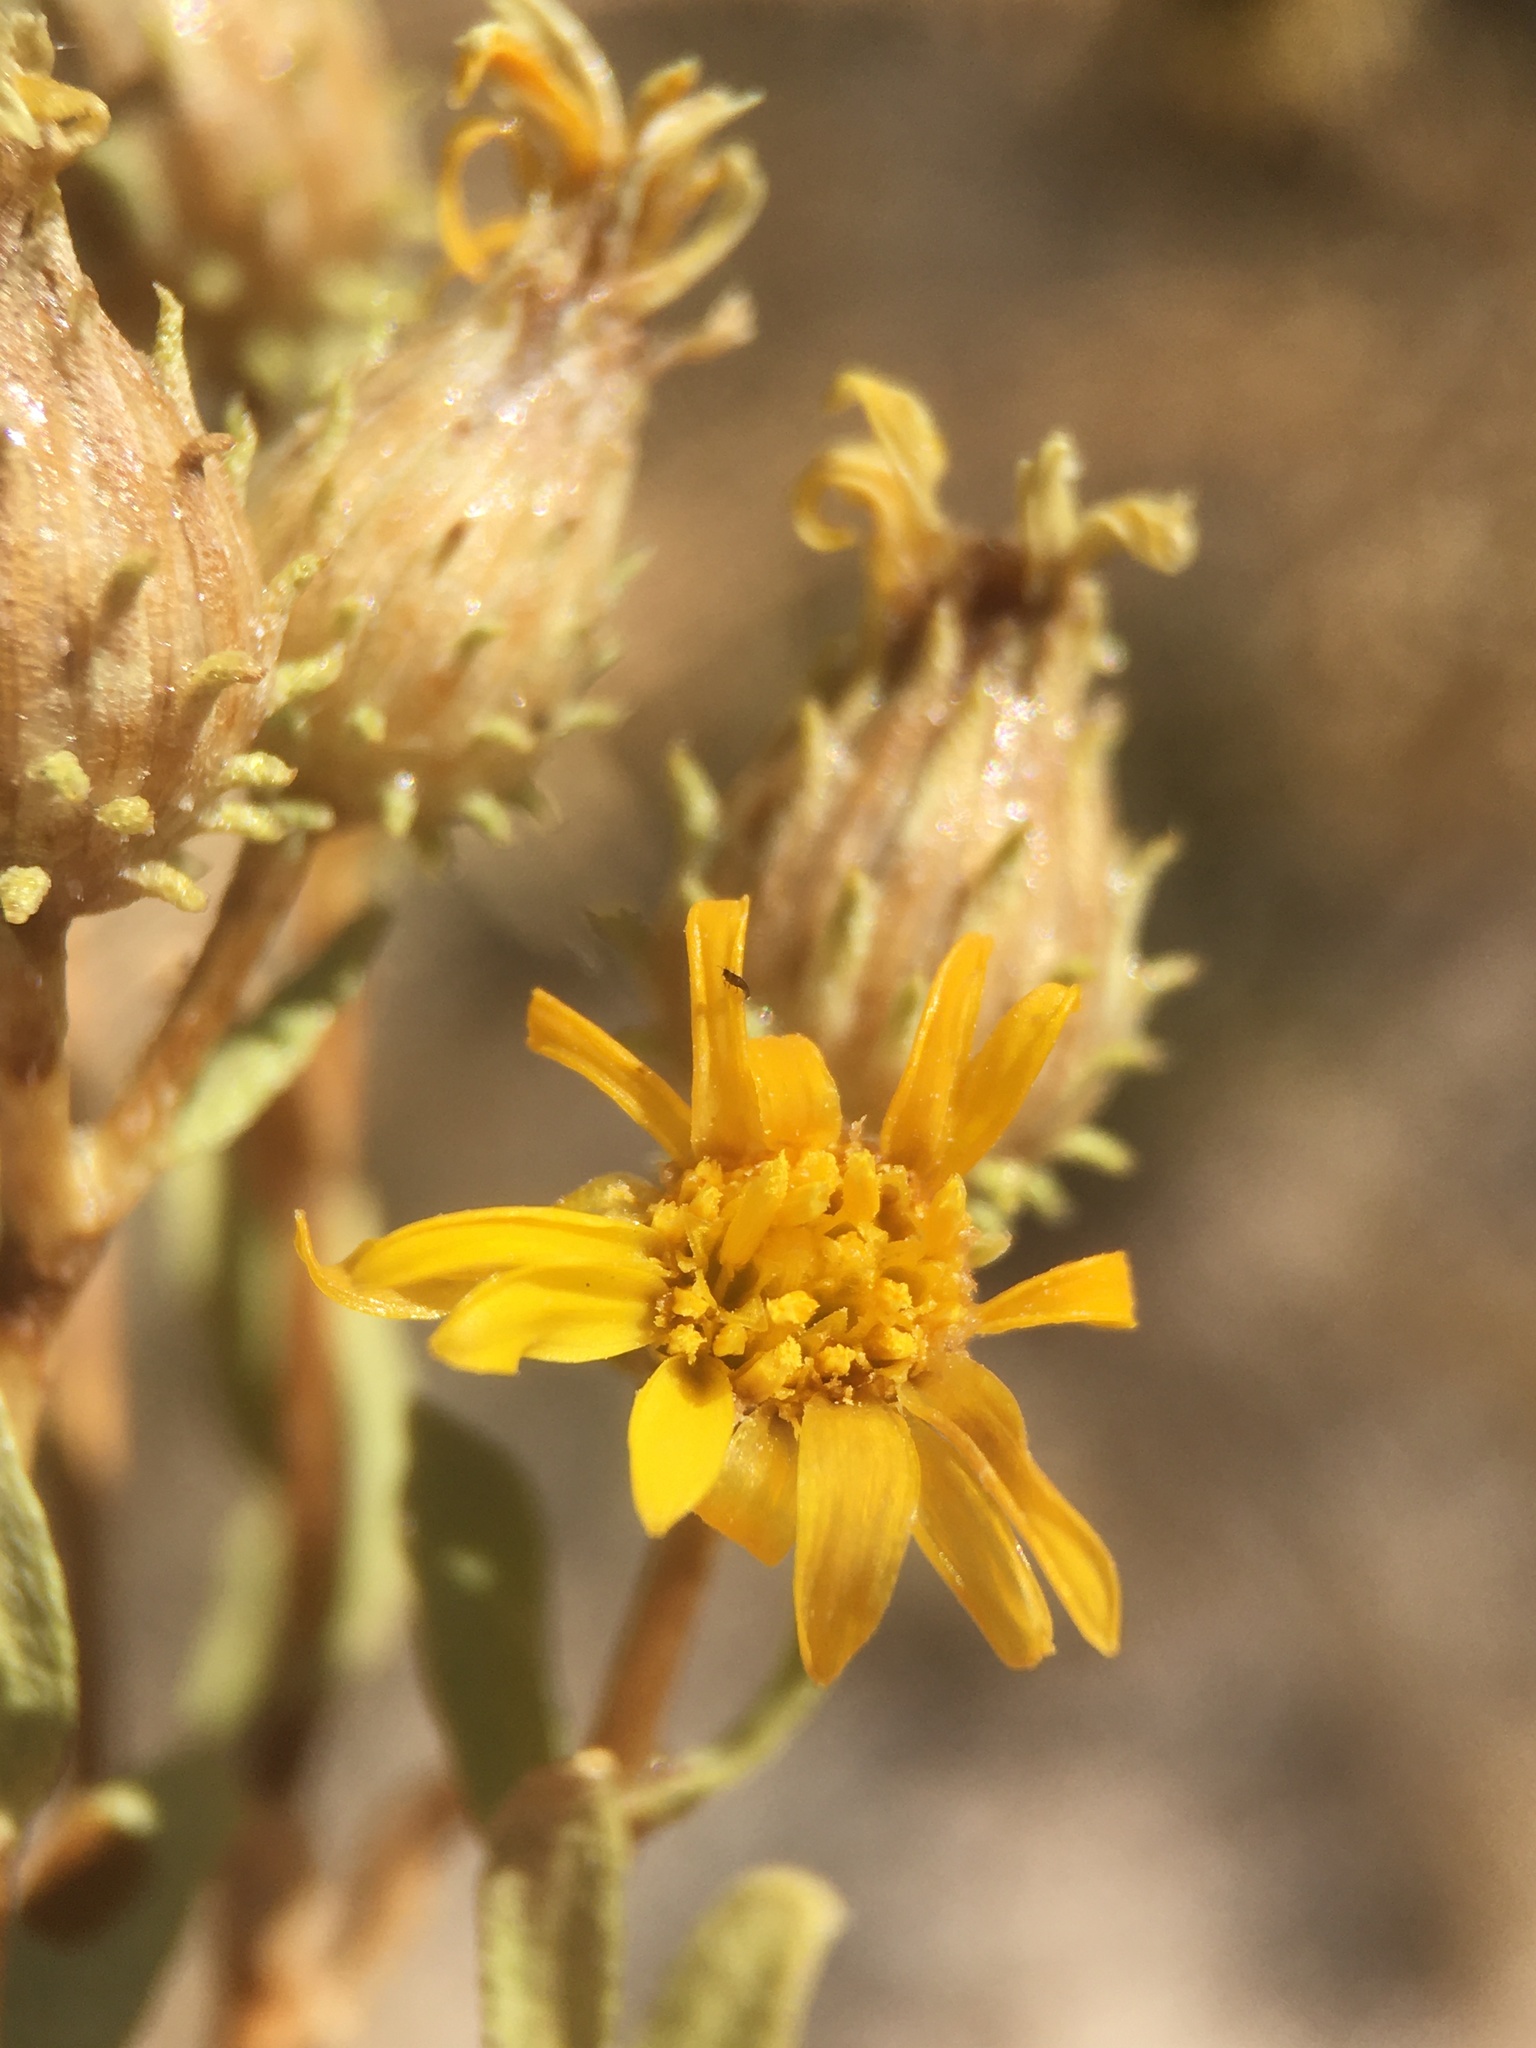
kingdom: Plantae
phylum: Tracheophyta
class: Magnoliopsida
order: Asterales
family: Asteraceae
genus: Grindelia
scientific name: Grindelia fraxinipratensis
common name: Ash meadows gumplant
